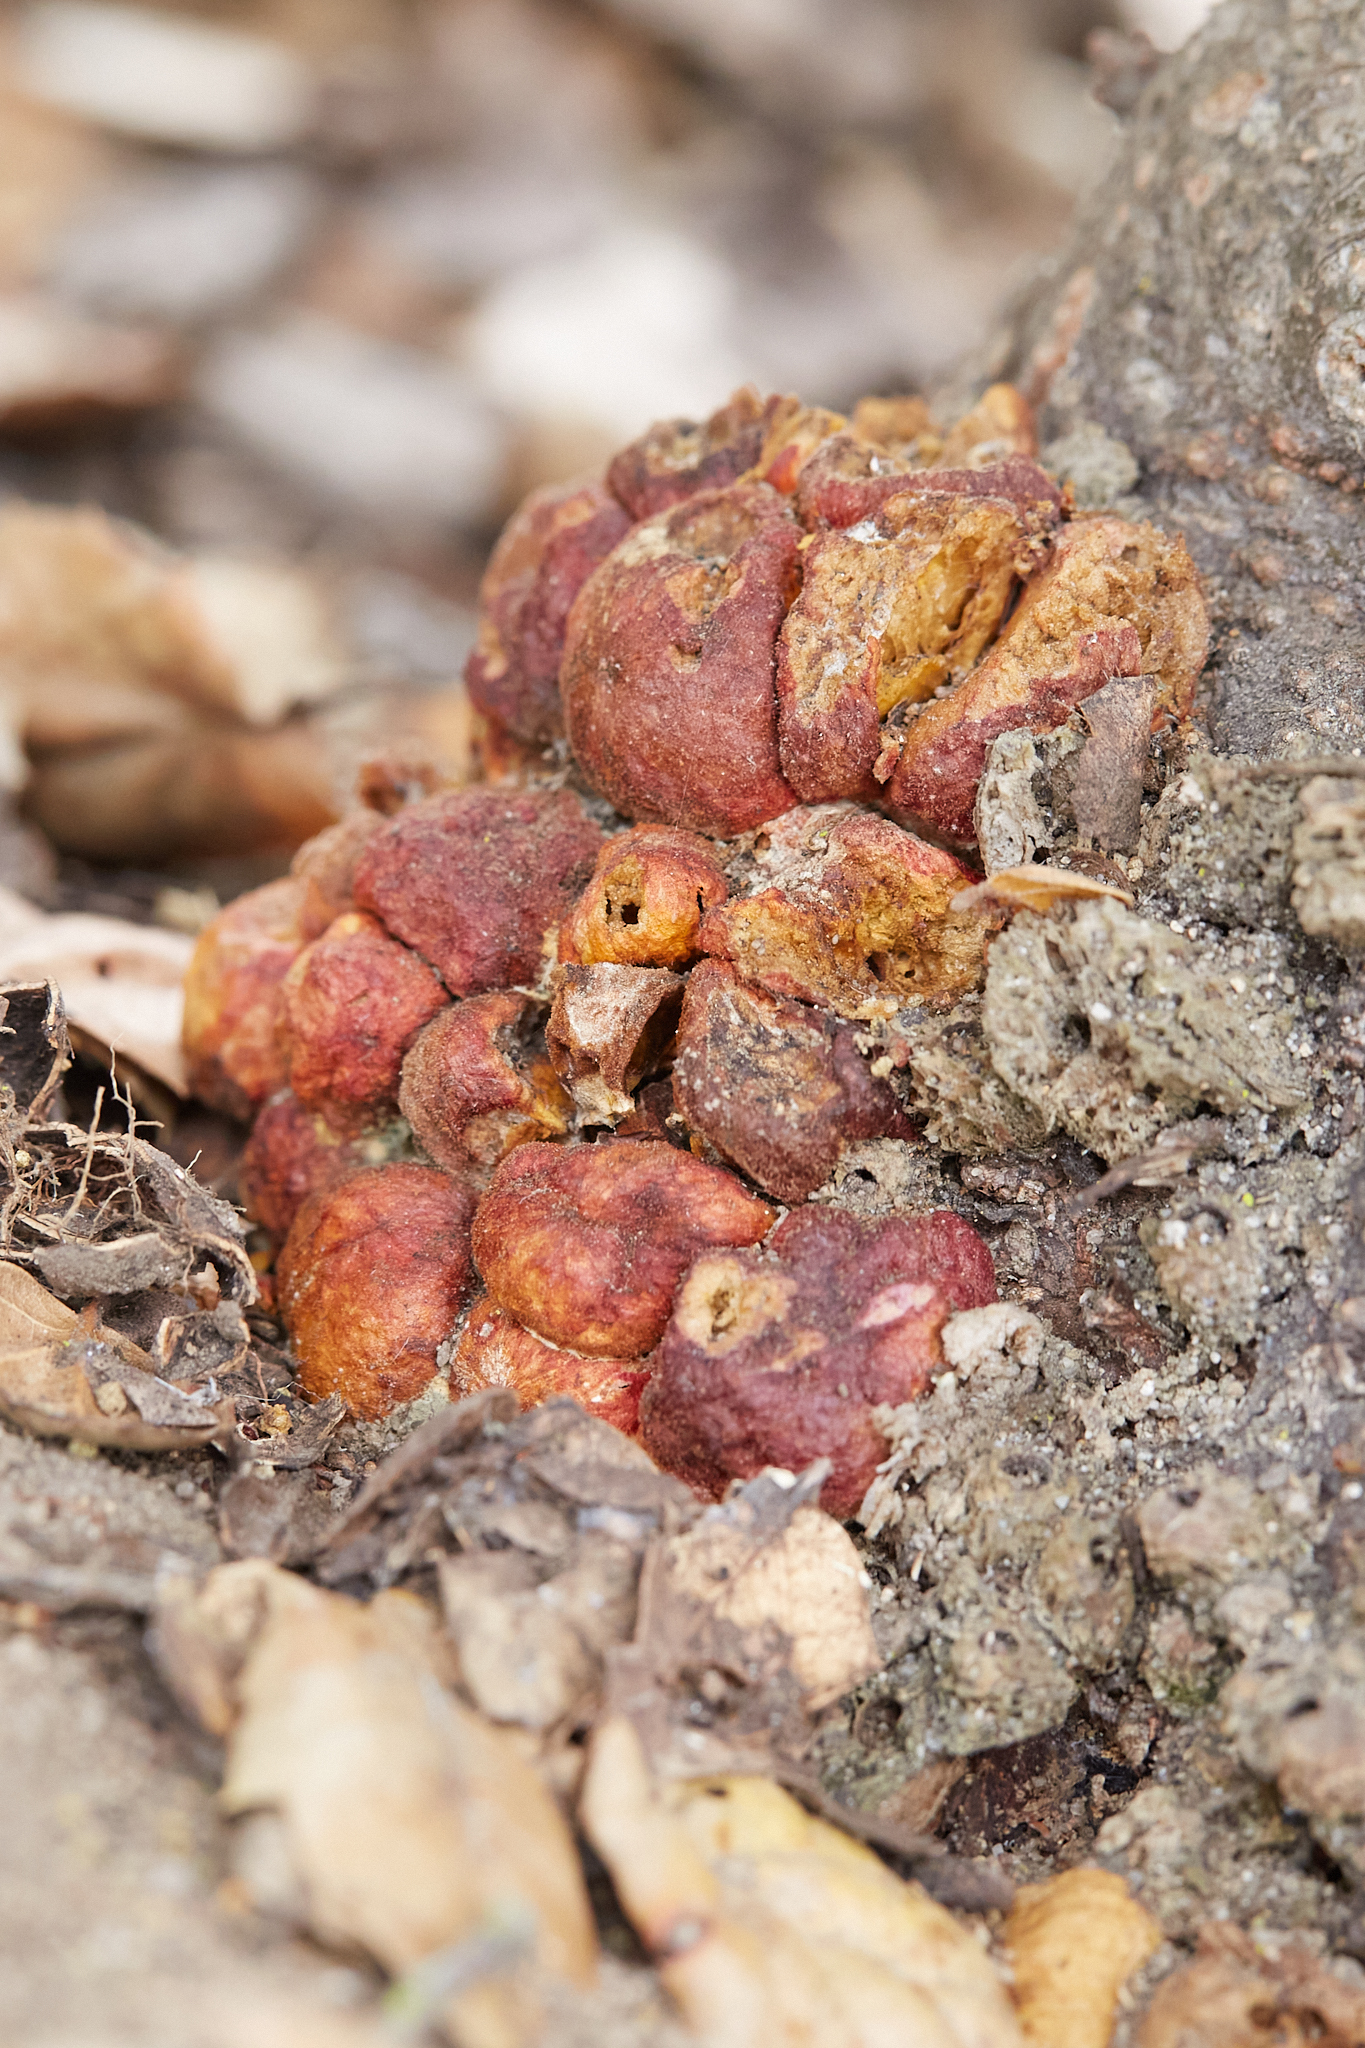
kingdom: Animalia
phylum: Arthropoda
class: Insecta
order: Hymenoptera
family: Cynipidae
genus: Callirhytis
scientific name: Callirhytis
